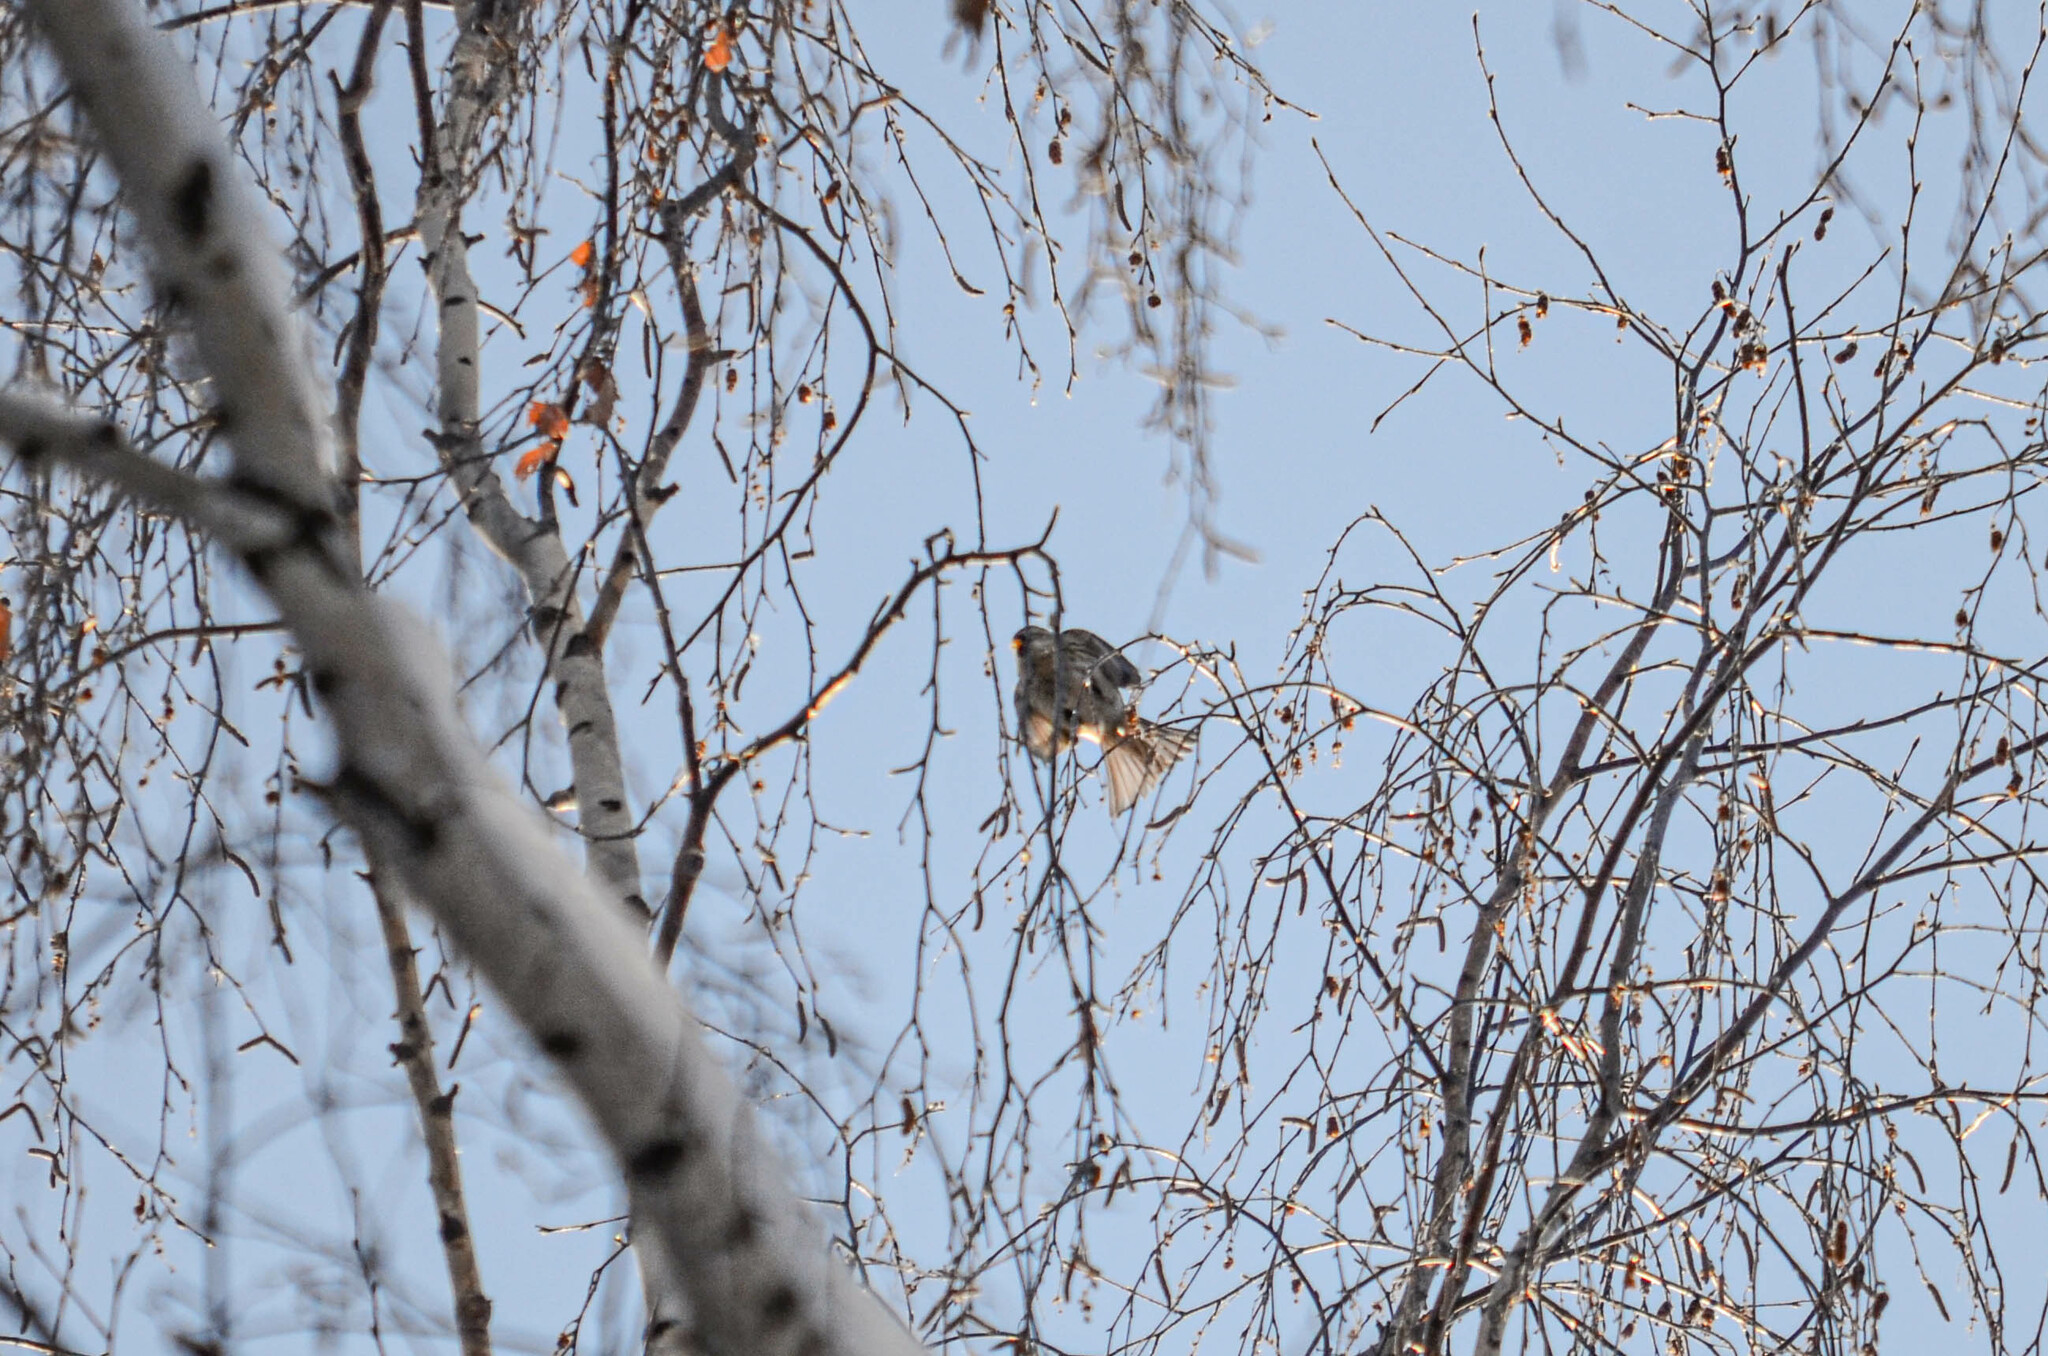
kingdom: Animalia
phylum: Chordata
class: Aves
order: Passeriformes
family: Fringillidae
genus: Acanthis
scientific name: Acanthis flammea
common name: Common redpoll
